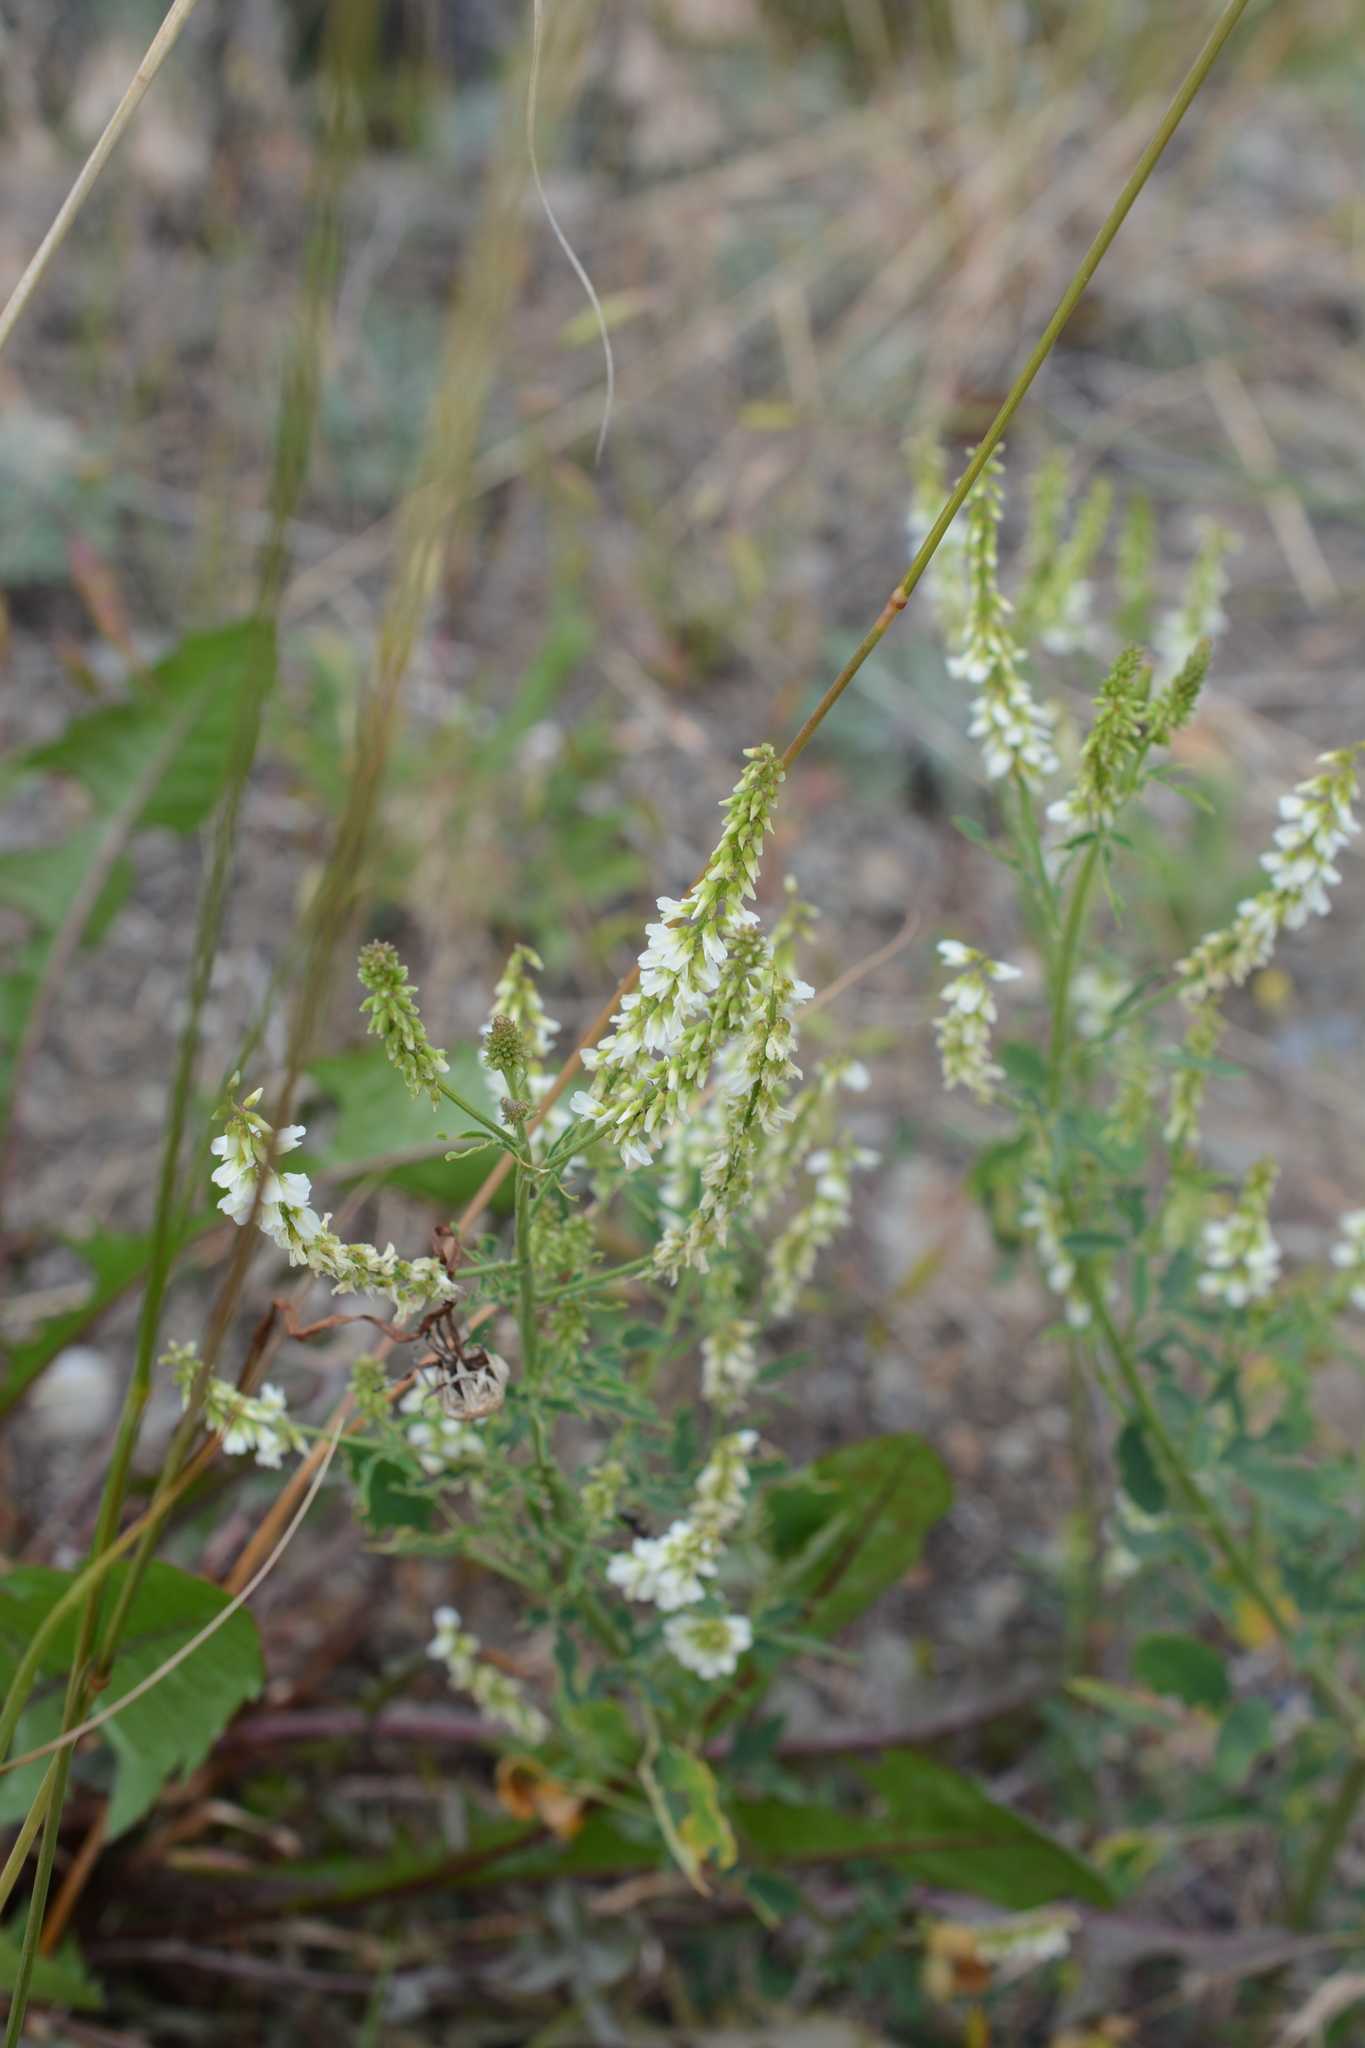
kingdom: Plantae
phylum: Tracheophyta
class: Magnoliopsida
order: Fabales
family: Fabaceae
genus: Melilotus
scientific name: Melilotus albus
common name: White melilot
